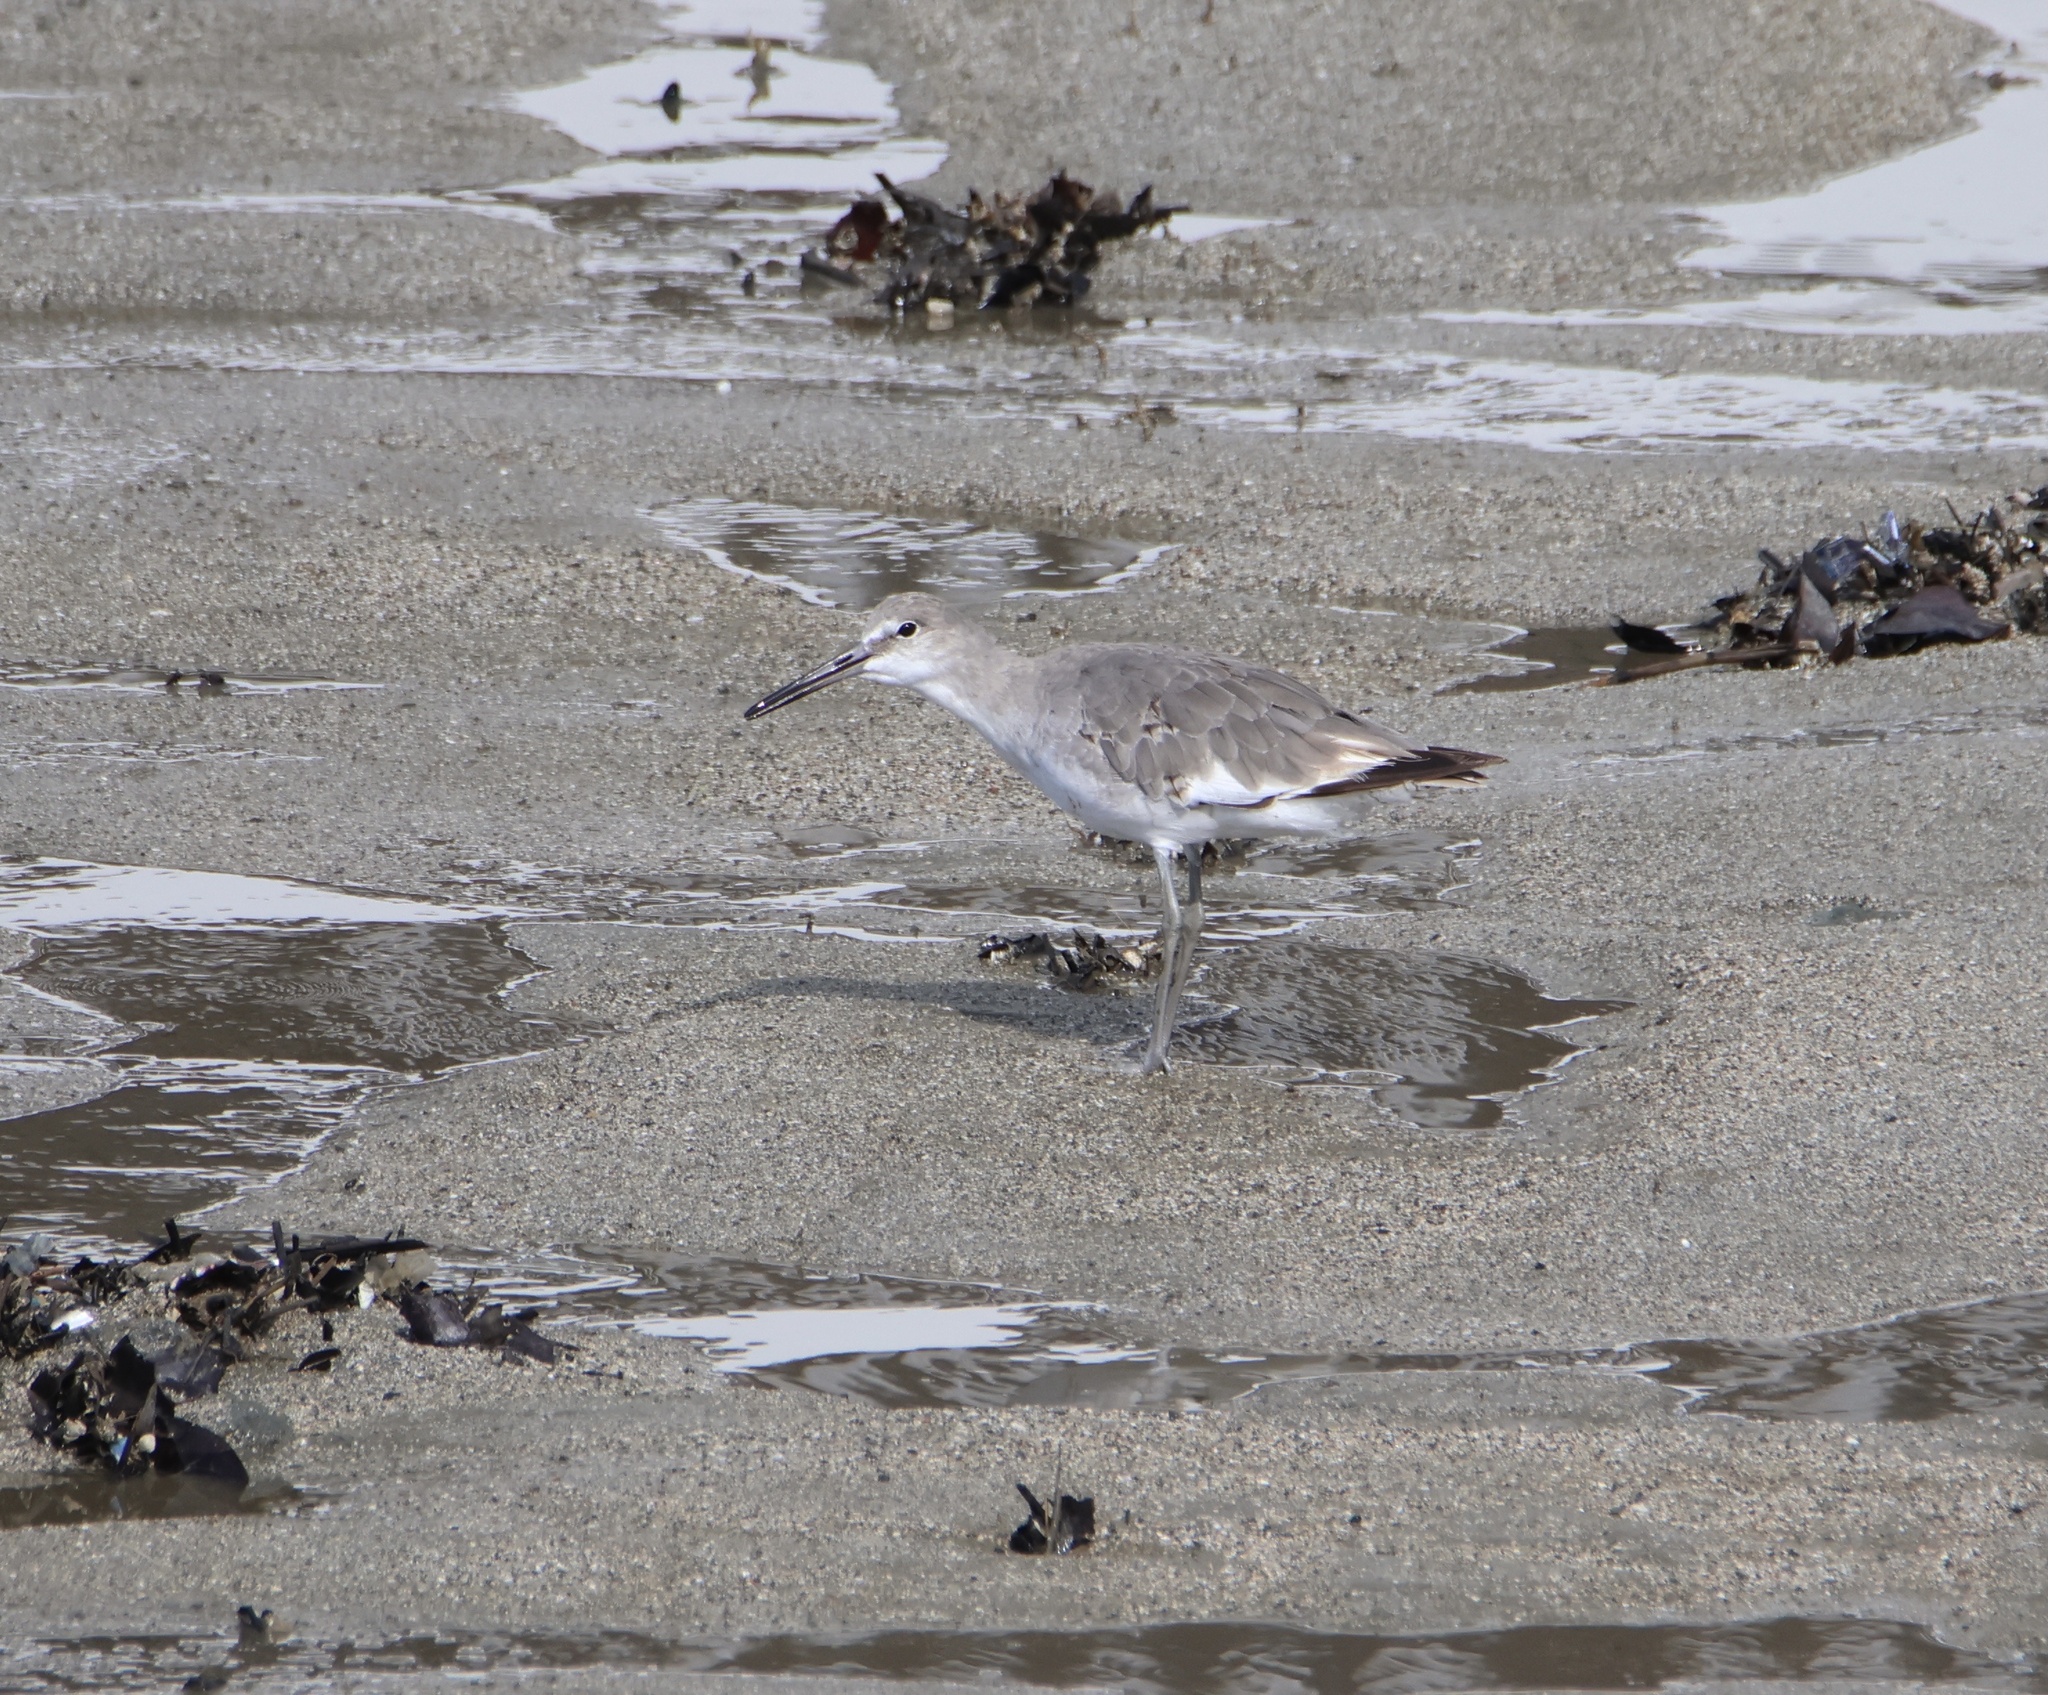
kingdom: Animalia
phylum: Chordata
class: Aves
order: Charadriiformes
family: Scolopacidae
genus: Tringa
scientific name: Tringa semipalmata
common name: Willet
